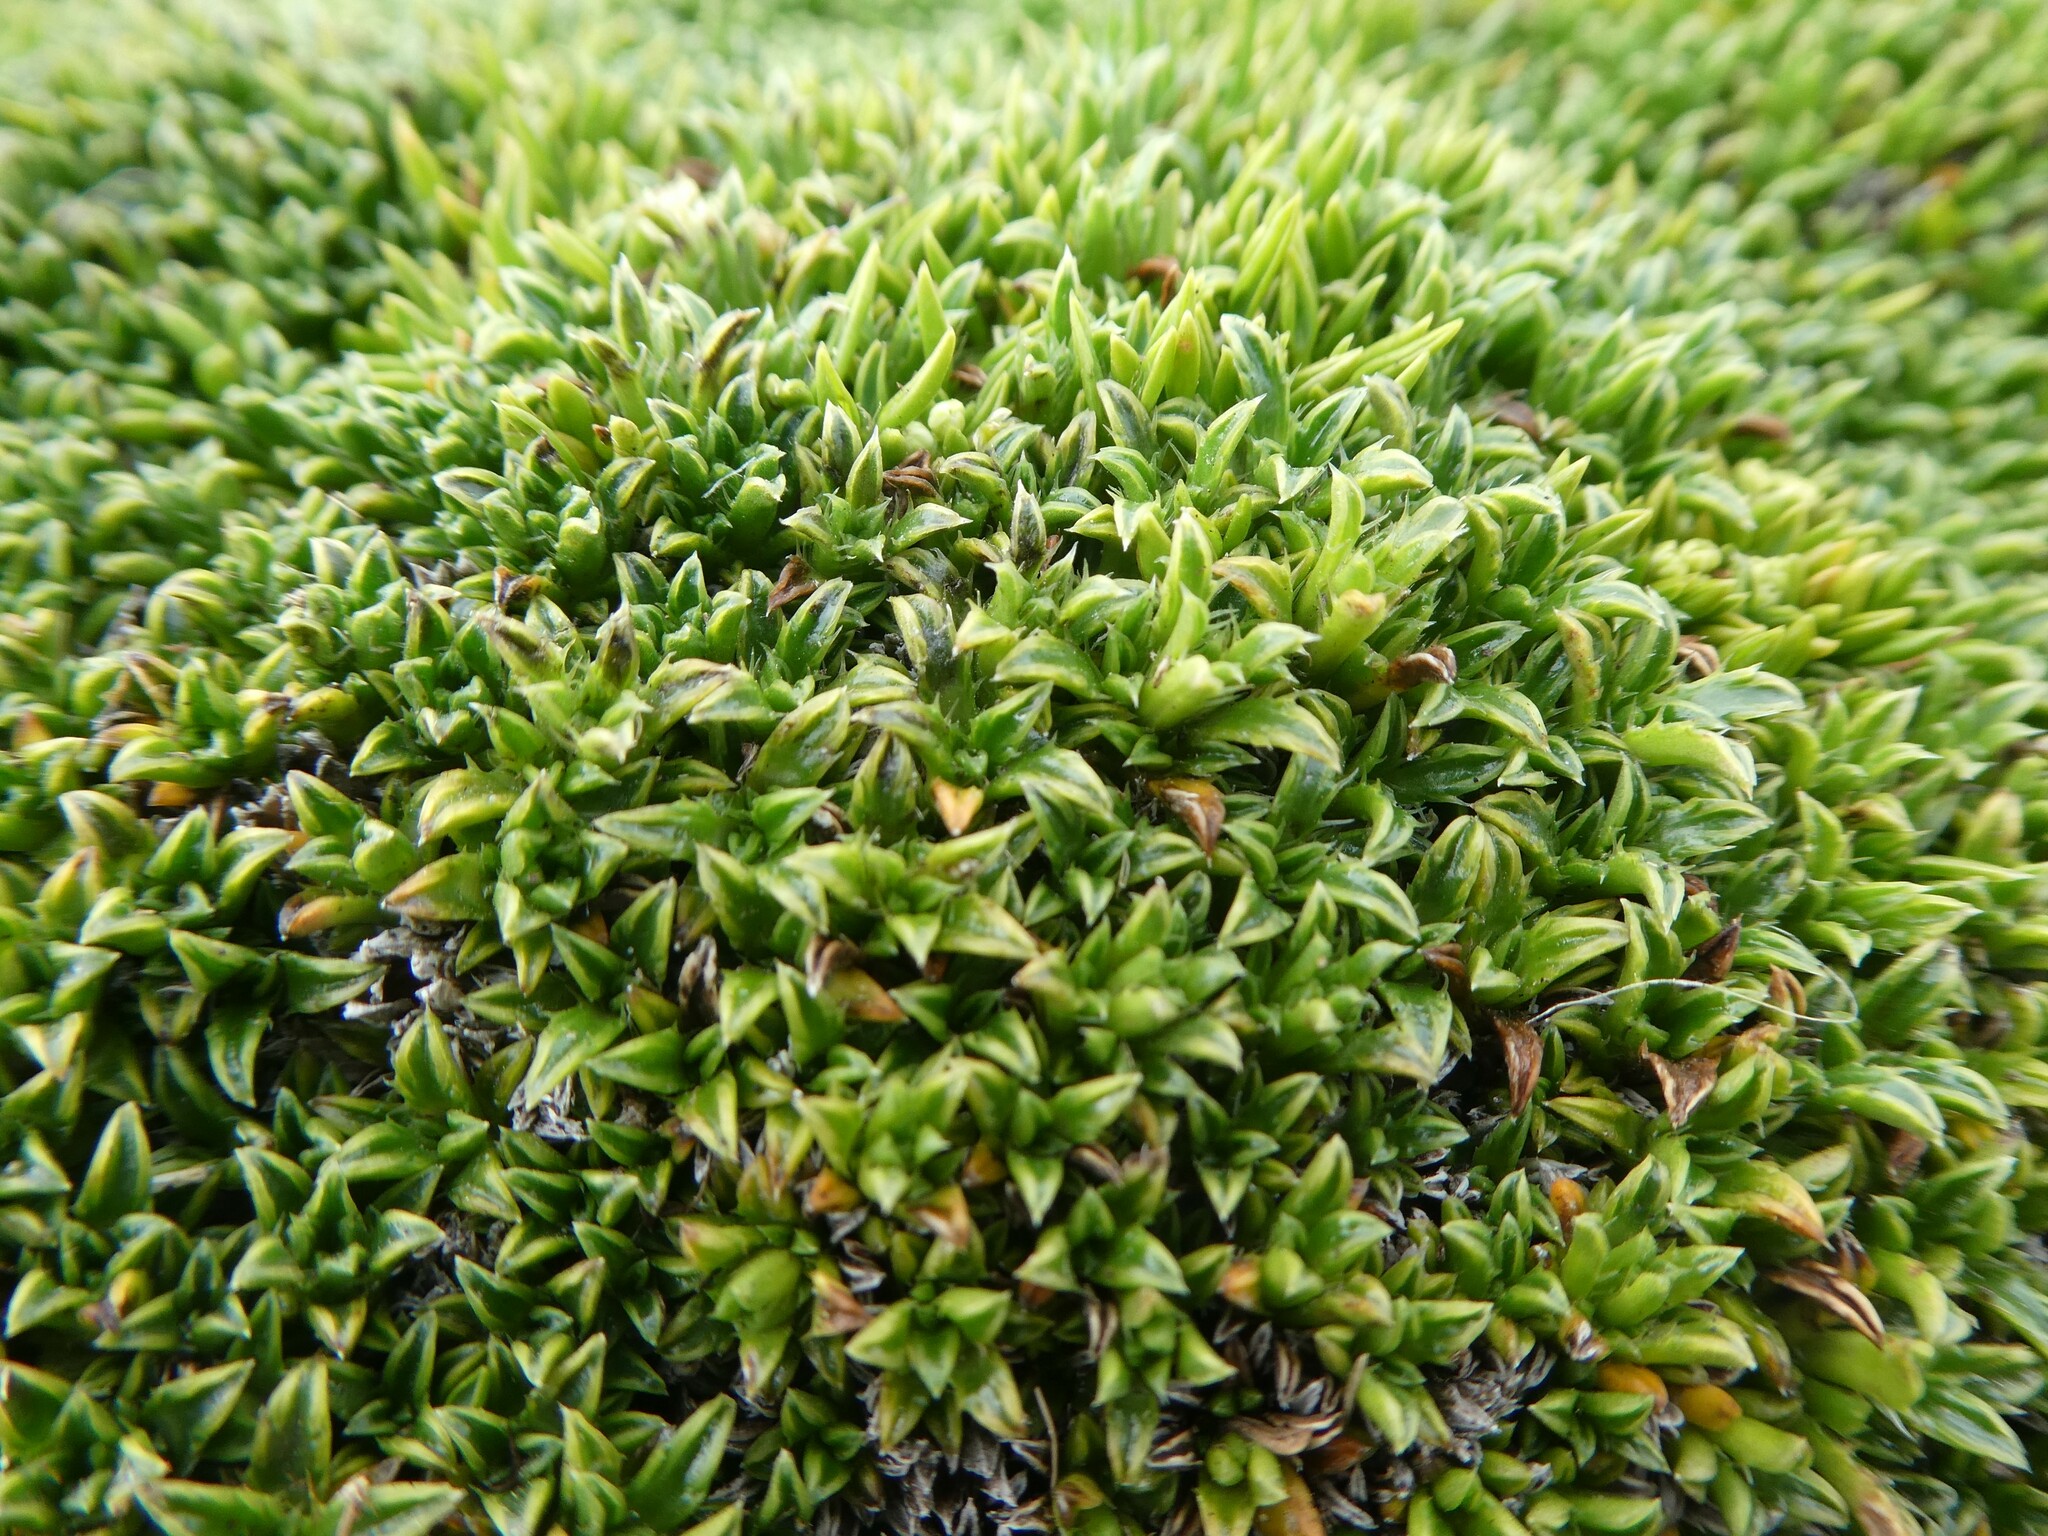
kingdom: Plantae
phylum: Tracheophyta
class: Magnoliopsida
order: Asterales
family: Asteraceae
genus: Nassauvia
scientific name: Nassauvia gaudichaudii
